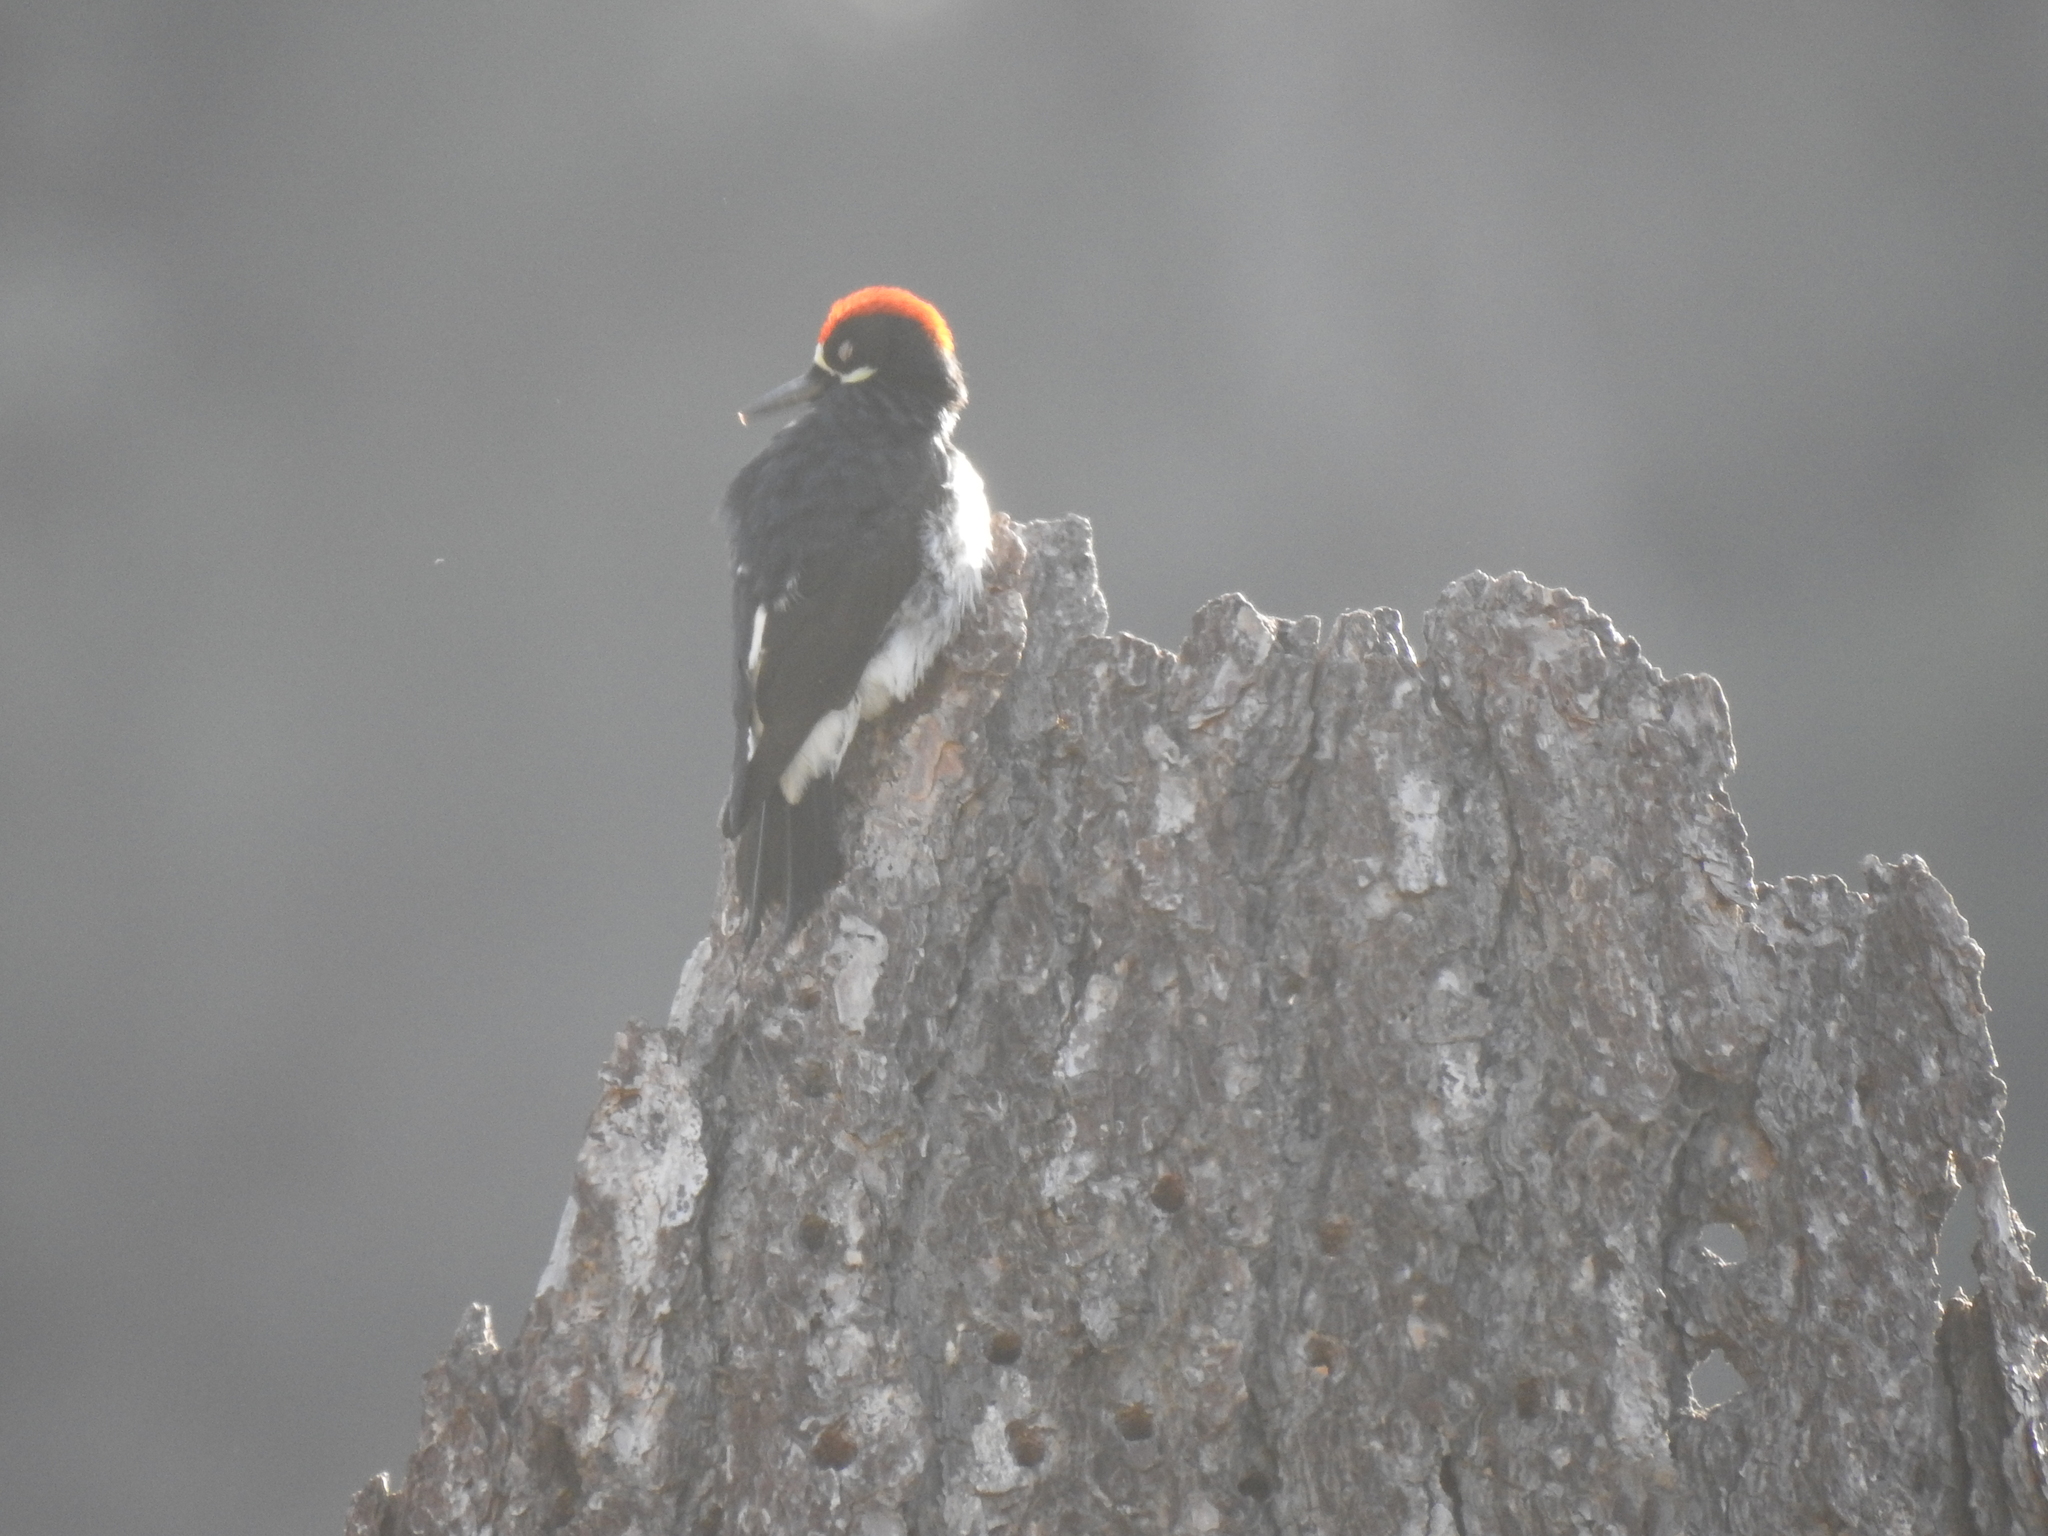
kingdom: Animalia
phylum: Chordata
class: Aves
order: Piciformes
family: Picidae
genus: Melanerpes
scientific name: Melanerpes formicivorus
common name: Acorn woodpecker
